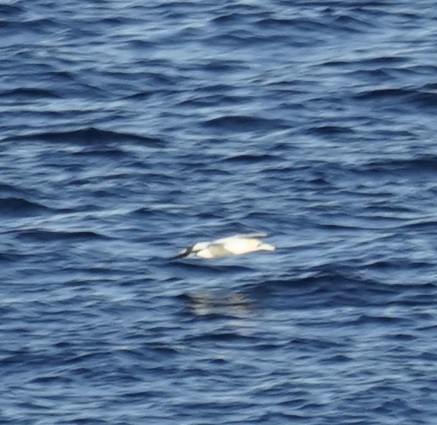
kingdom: Animalia
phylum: Chordata
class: Aves
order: Suliformes
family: Sulidae
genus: Morus
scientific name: Morus serrator
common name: Australasian gannet
